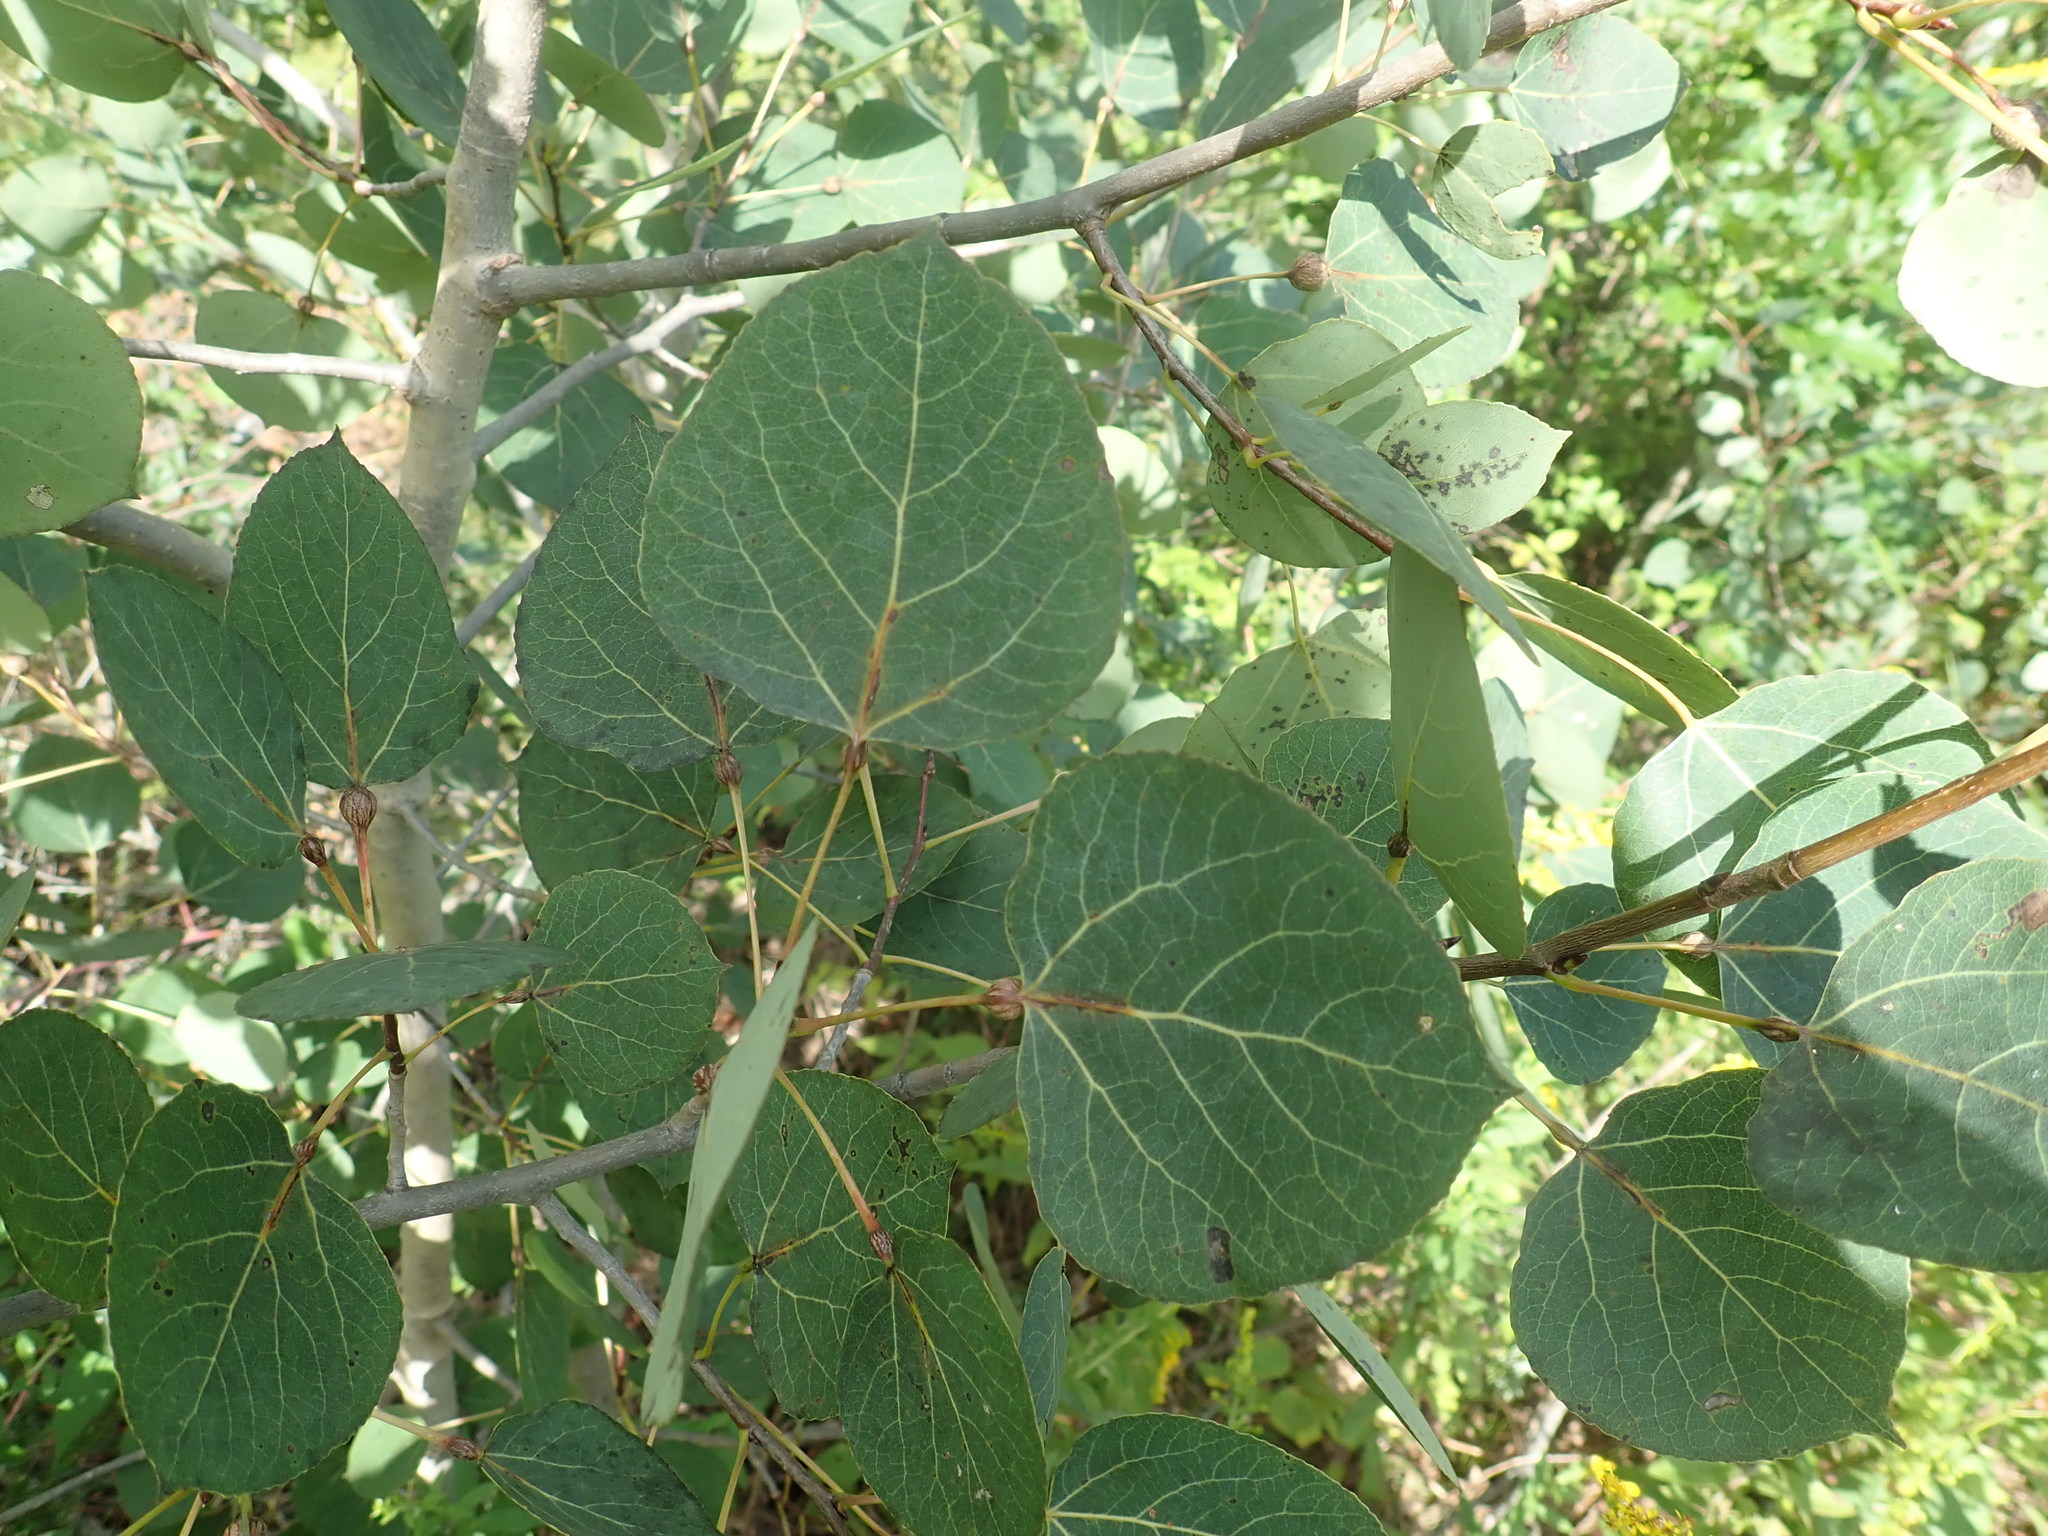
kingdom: Plantae
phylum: Tracheophyta
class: Magnoliopsida
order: Malpighiales
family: Salicaceae
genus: Populus
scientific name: Populus tremuloides
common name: Quaking aspen
